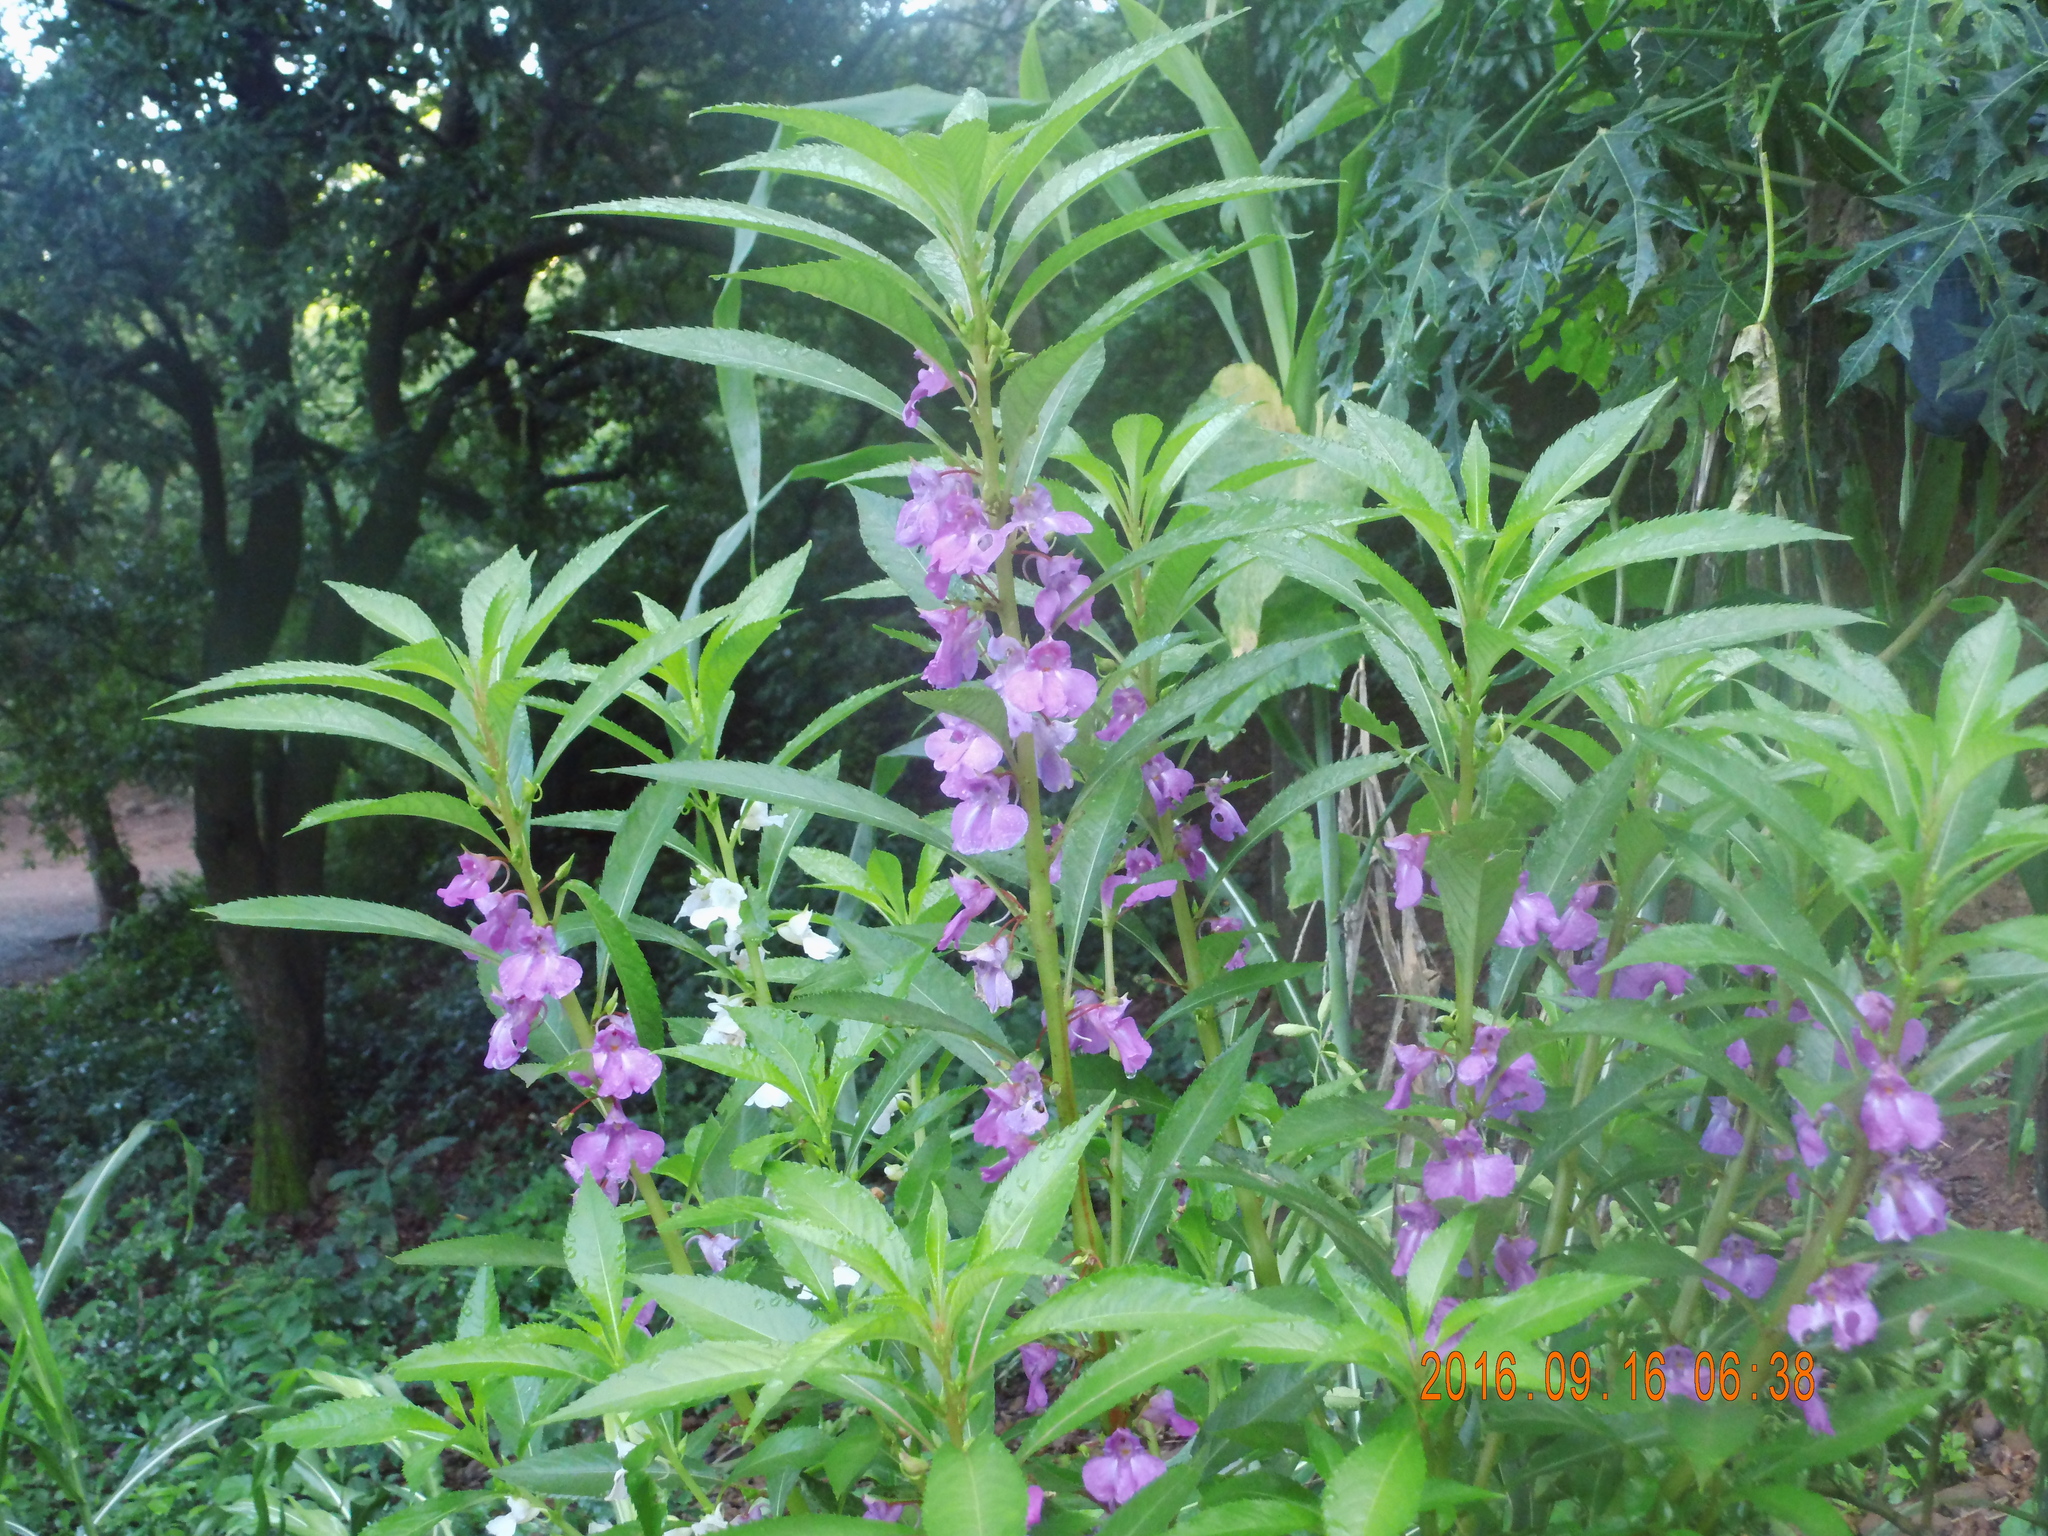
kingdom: Plantae
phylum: Tracheophyta
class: Magnoliopsida
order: Ericales
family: Balsaminaceae
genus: Impatiens
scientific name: Impatiens balsamina
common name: Balsam
